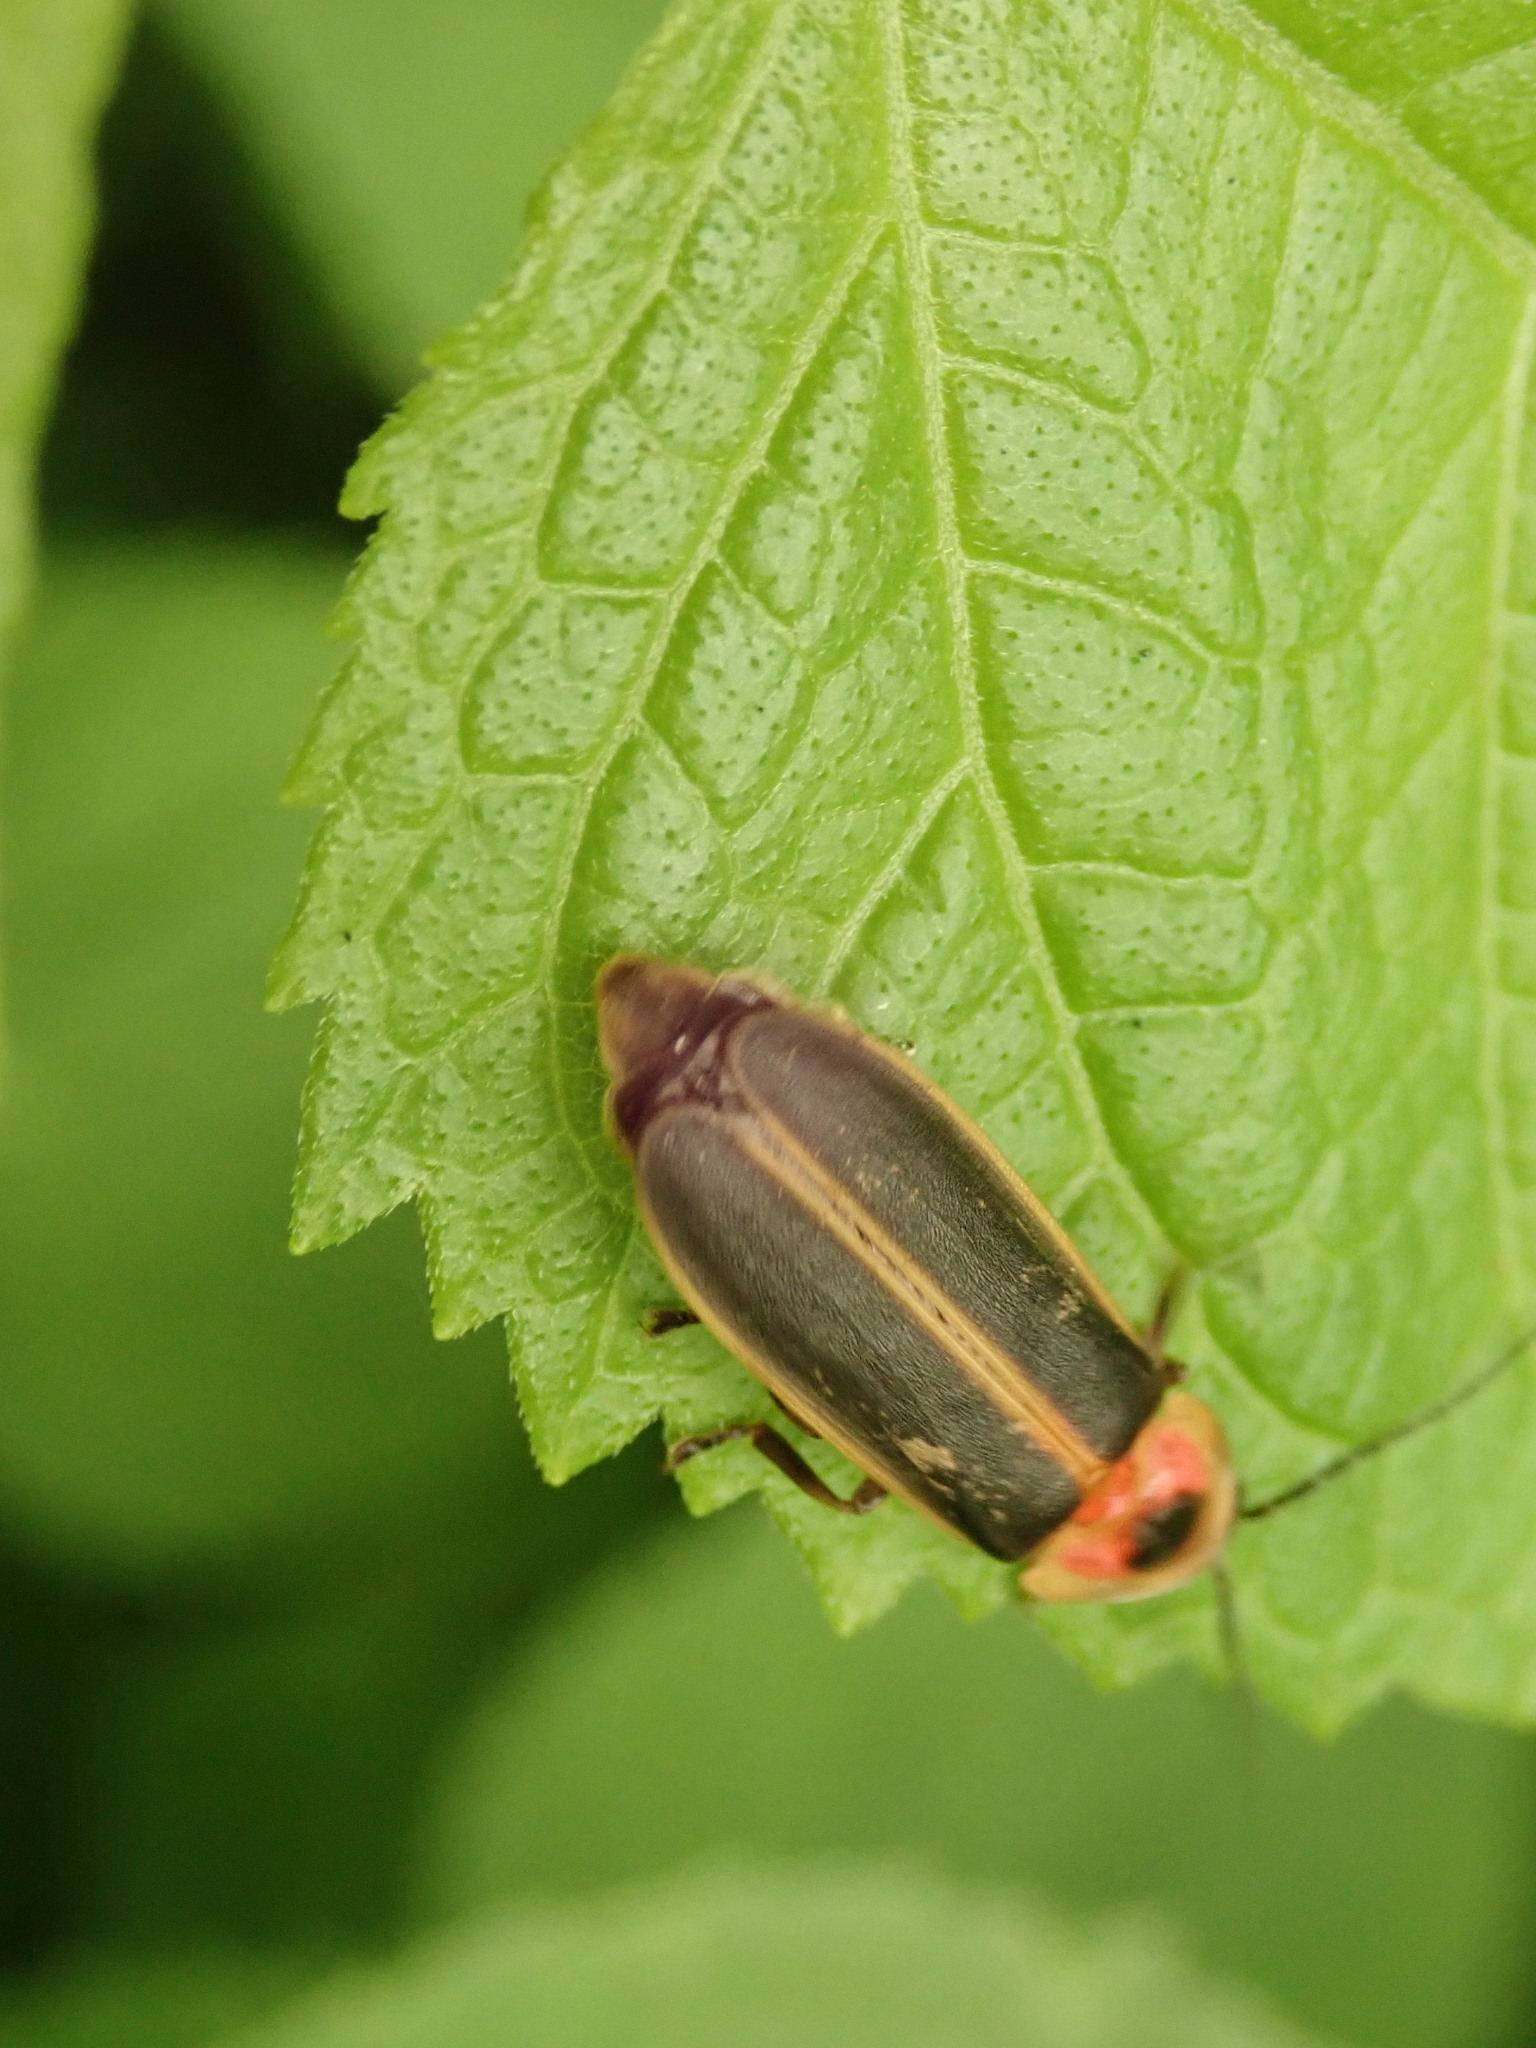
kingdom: Animalia
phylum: Arthropoda
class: Insecta
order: Coleoptera
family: Lampyridae
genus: Photinus
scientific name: Photinus pyralis
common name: Big dipper firefly
